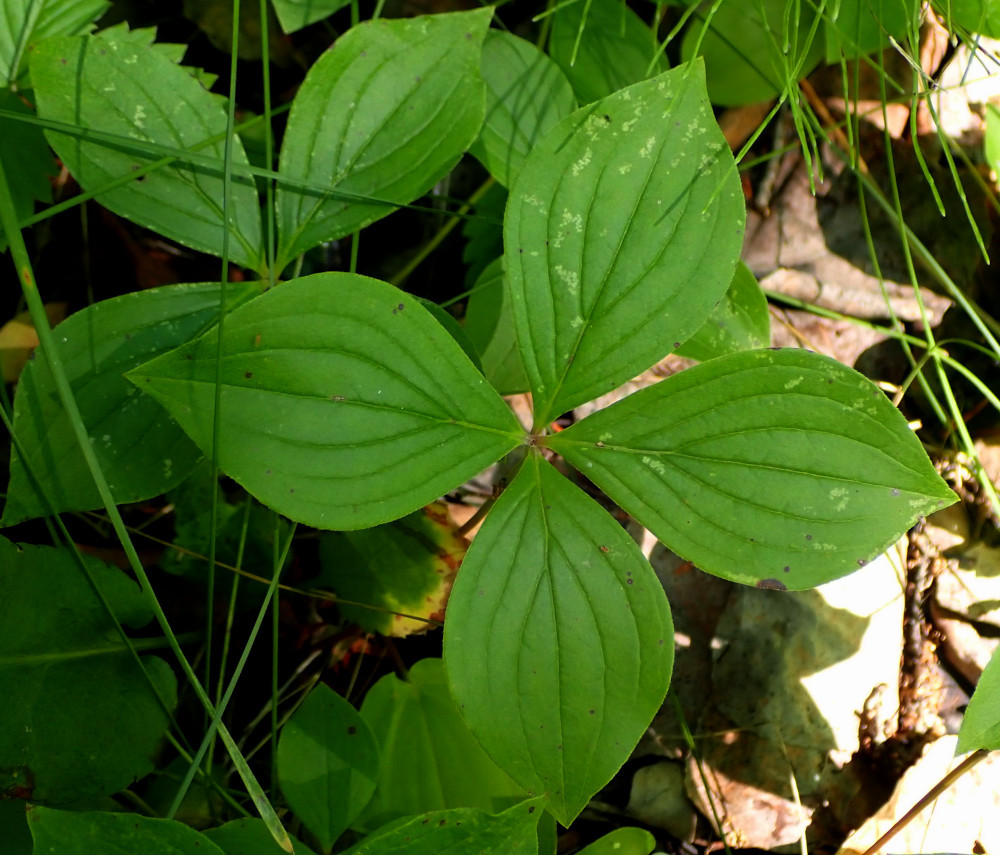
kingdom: Plantae
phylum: Tracheophyta
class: Magnoliopsida
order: Cornales
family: Cornaceae
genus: Cornus
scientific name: Cornus canadensis
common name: Creeping dogwood
